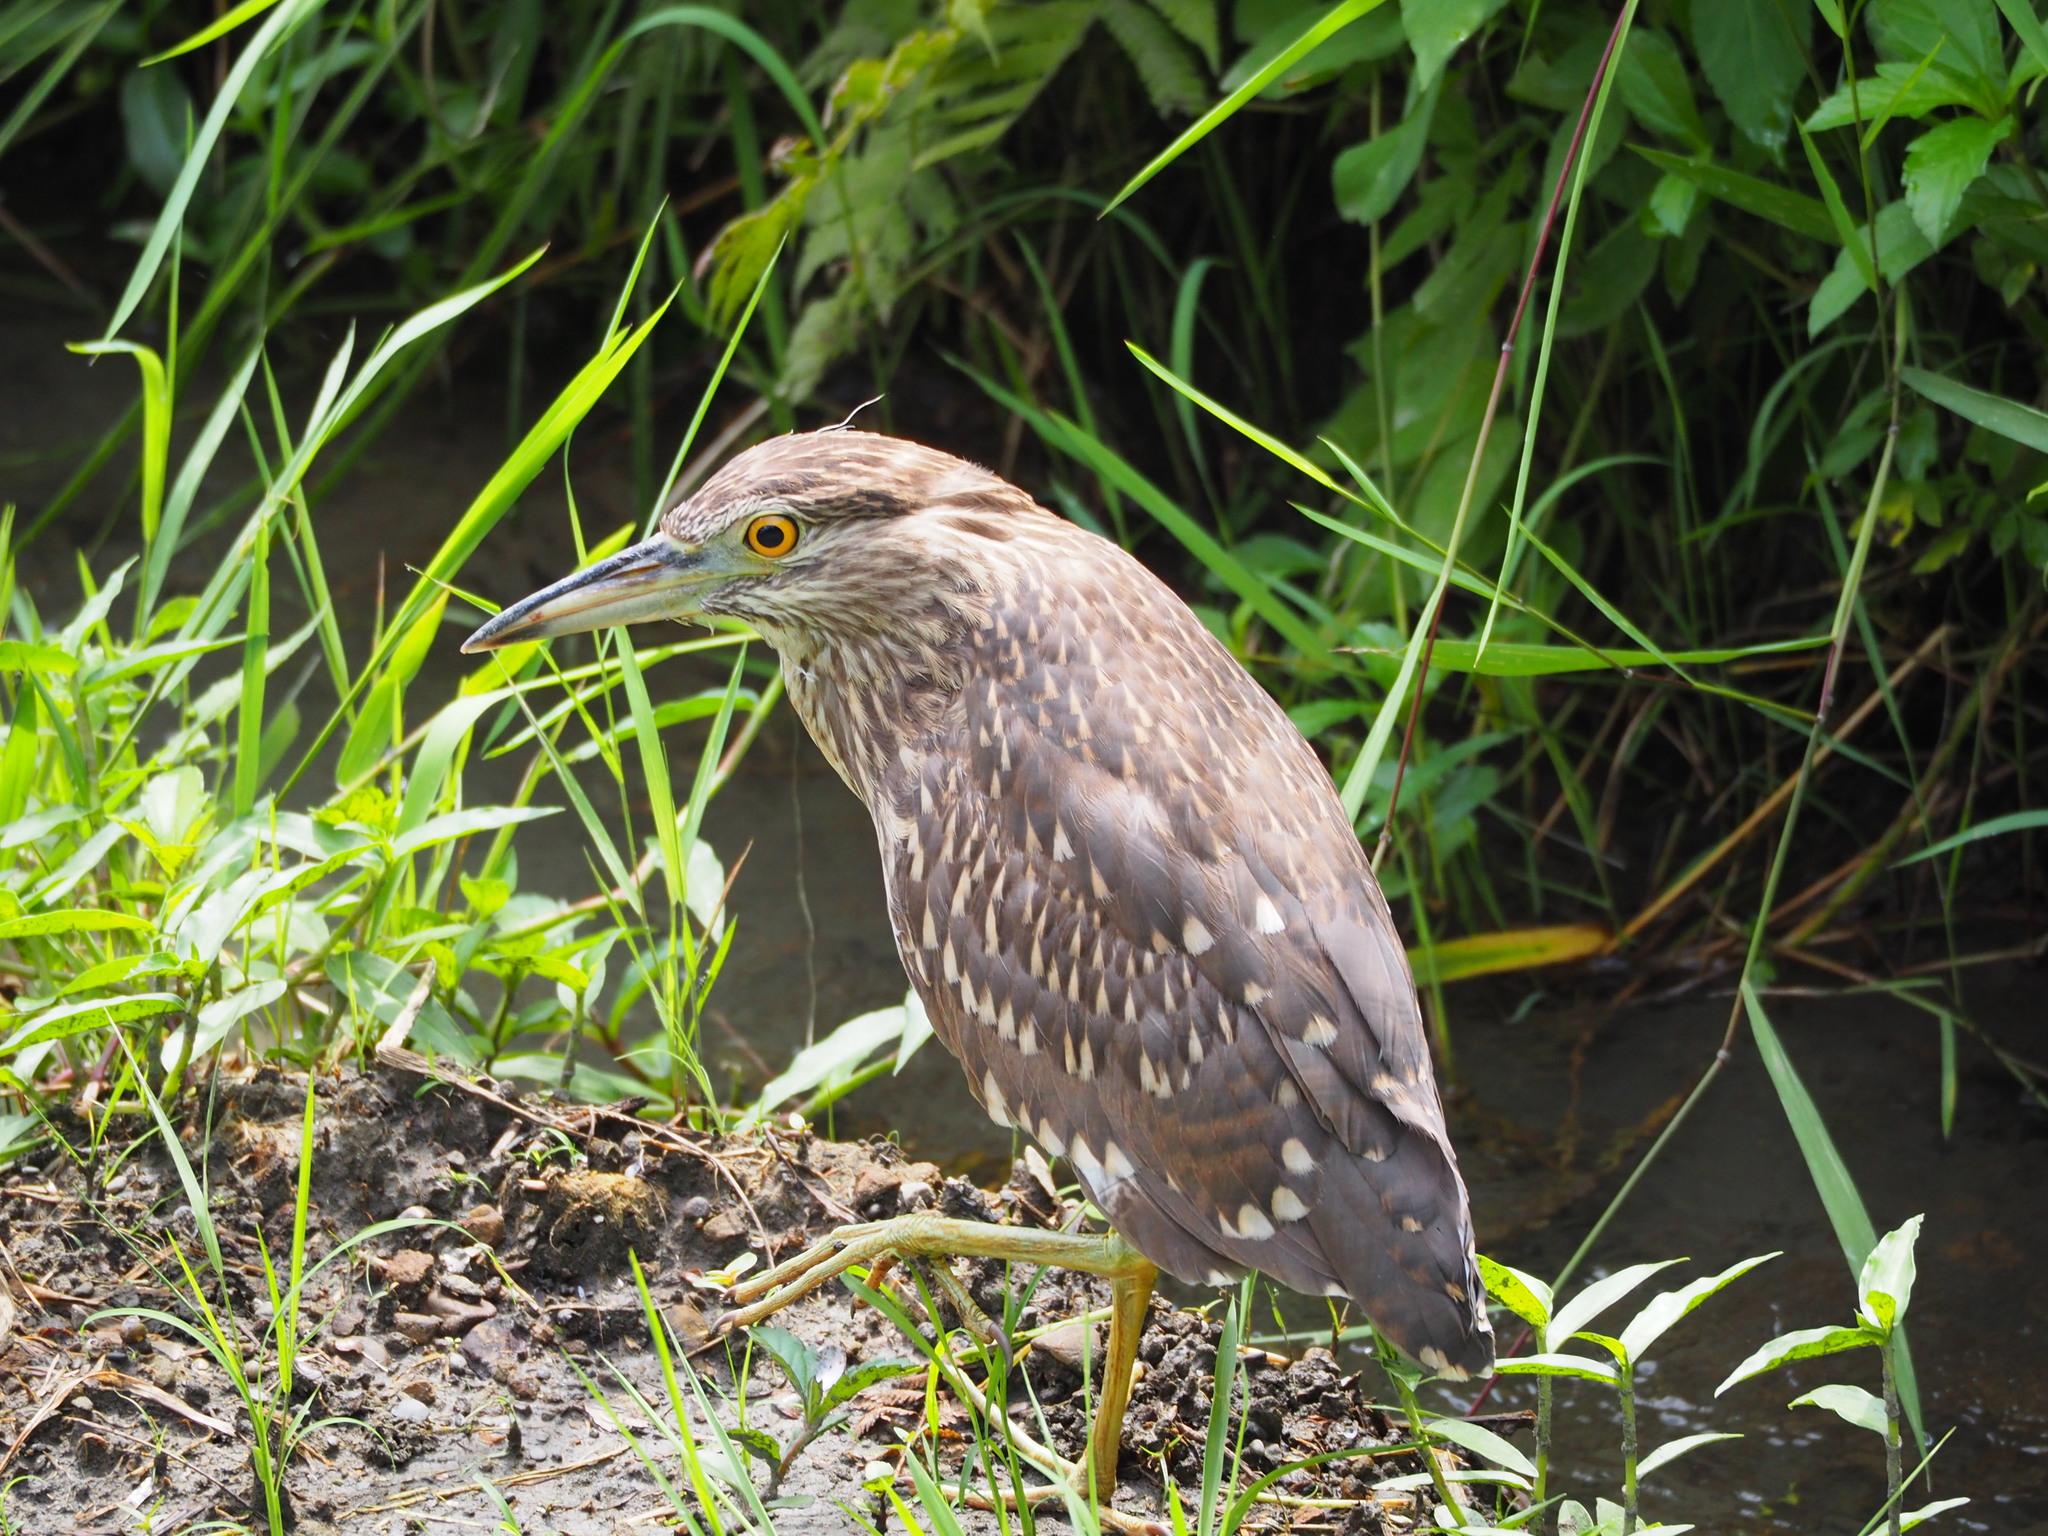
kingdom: Animalia
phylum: Chordata
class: Aves
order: Pelecaniformes
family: Ardeidae
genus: Nycticorax
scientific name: Nycticorax nycticorax
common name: Black-crowned night heron
